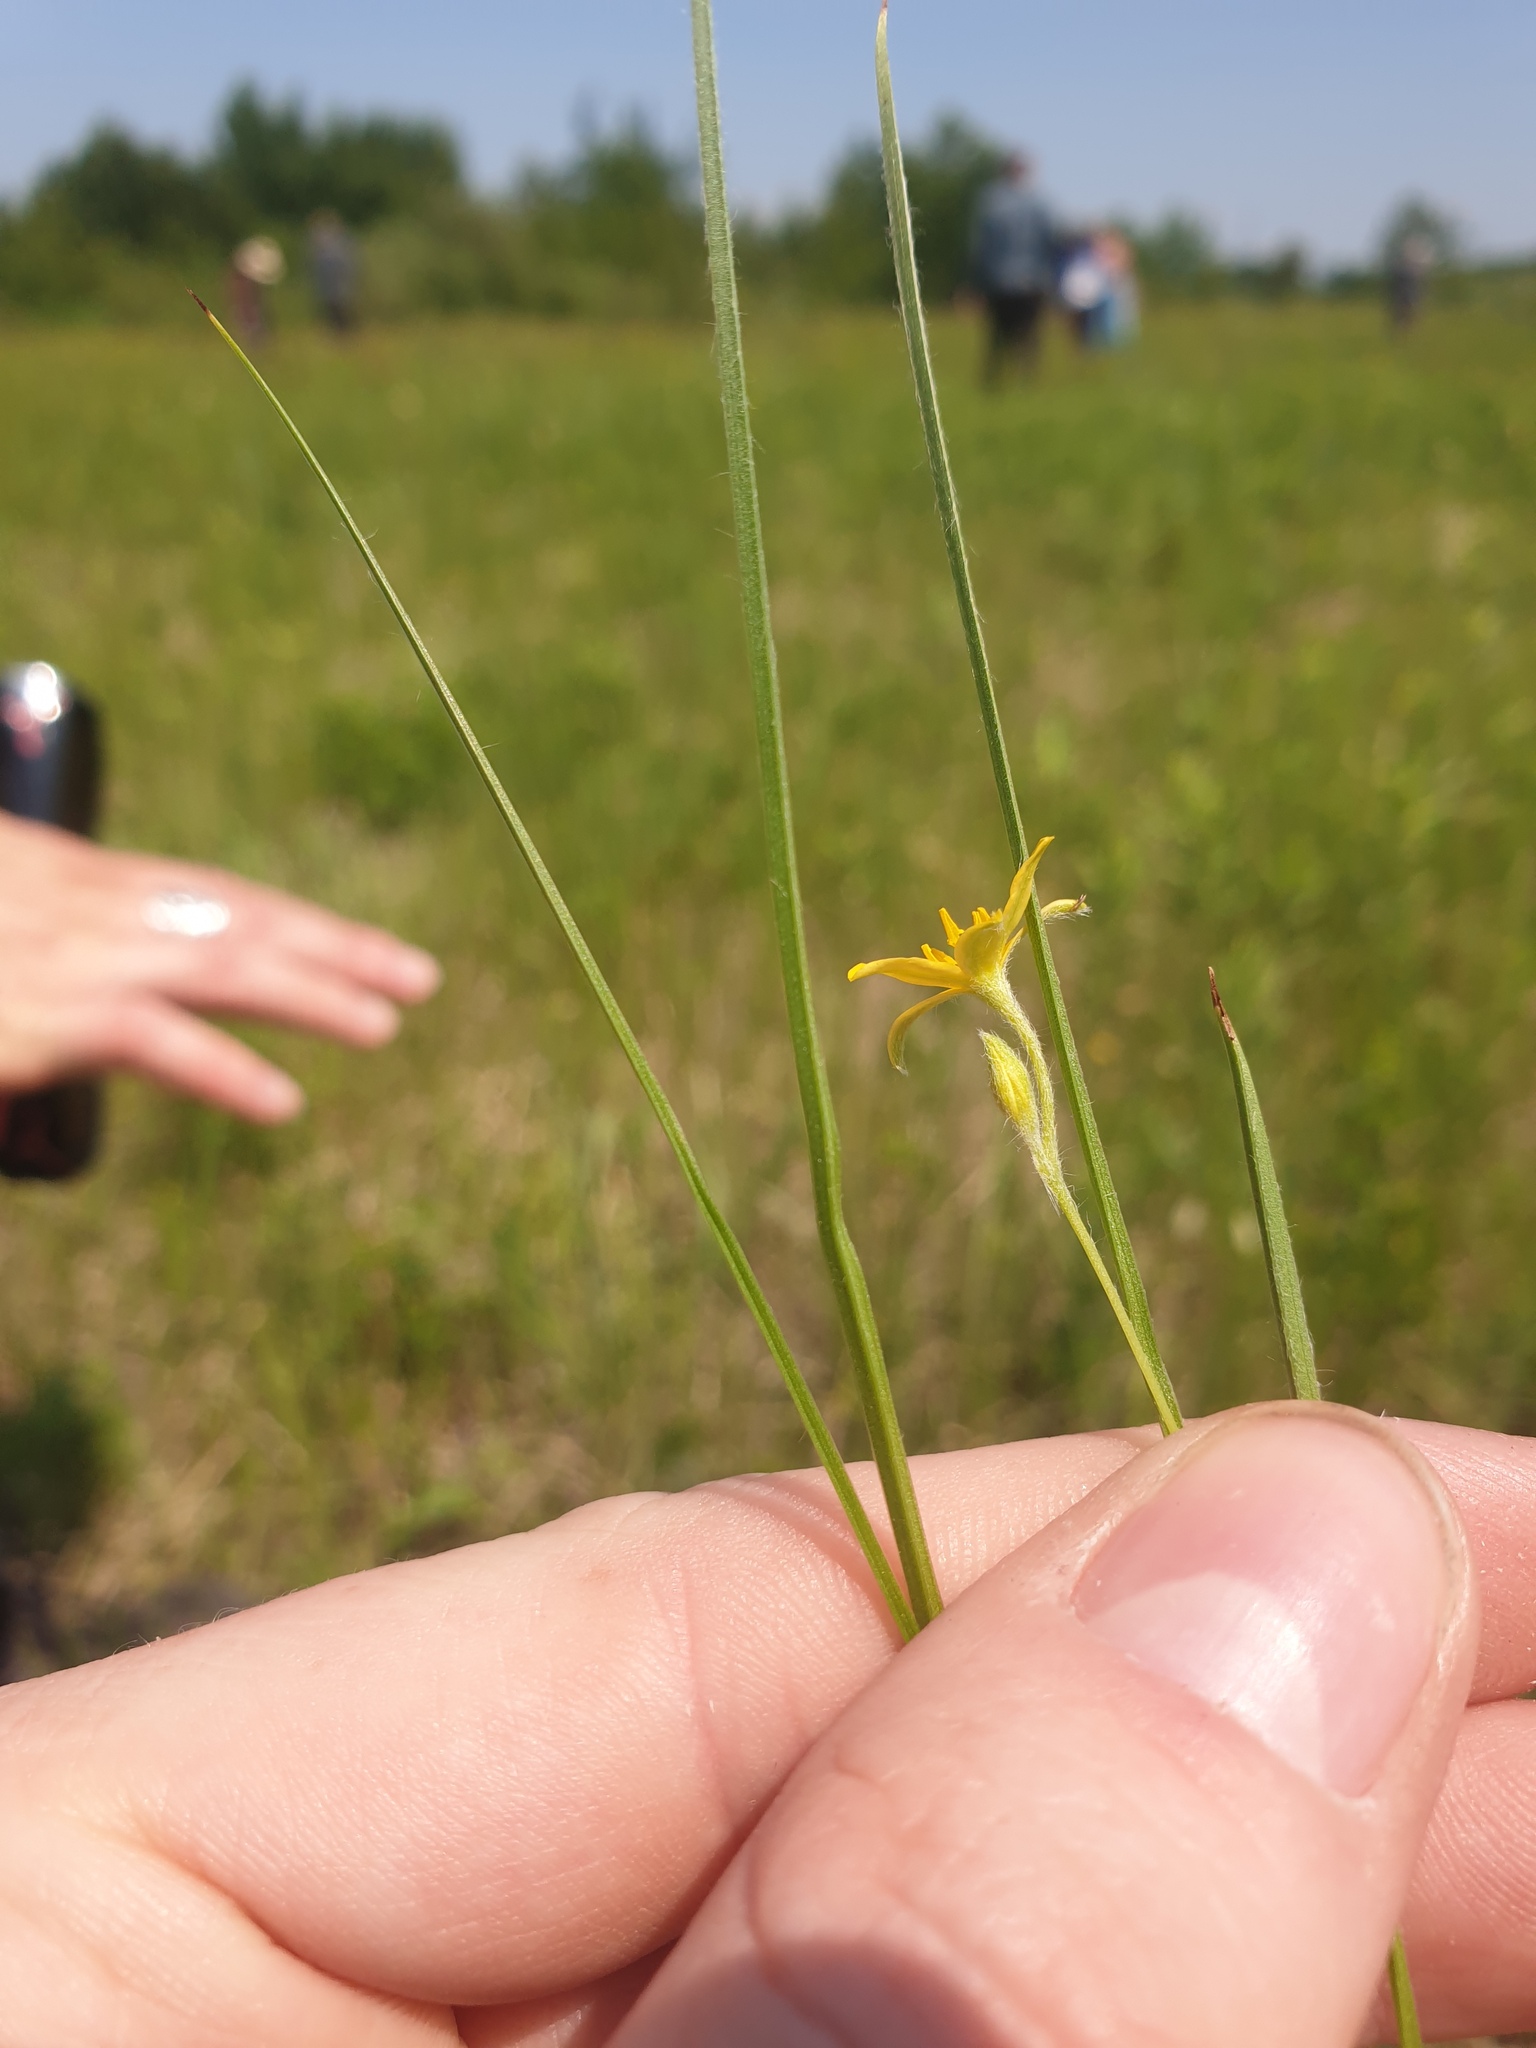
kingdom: Plantae
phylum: Tracheophyta
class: Liliopsida
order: Asparagales
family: Hypoxidaceae
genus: Hypoxis
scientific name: Hypoxis hirsuta
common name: Common goldstar
